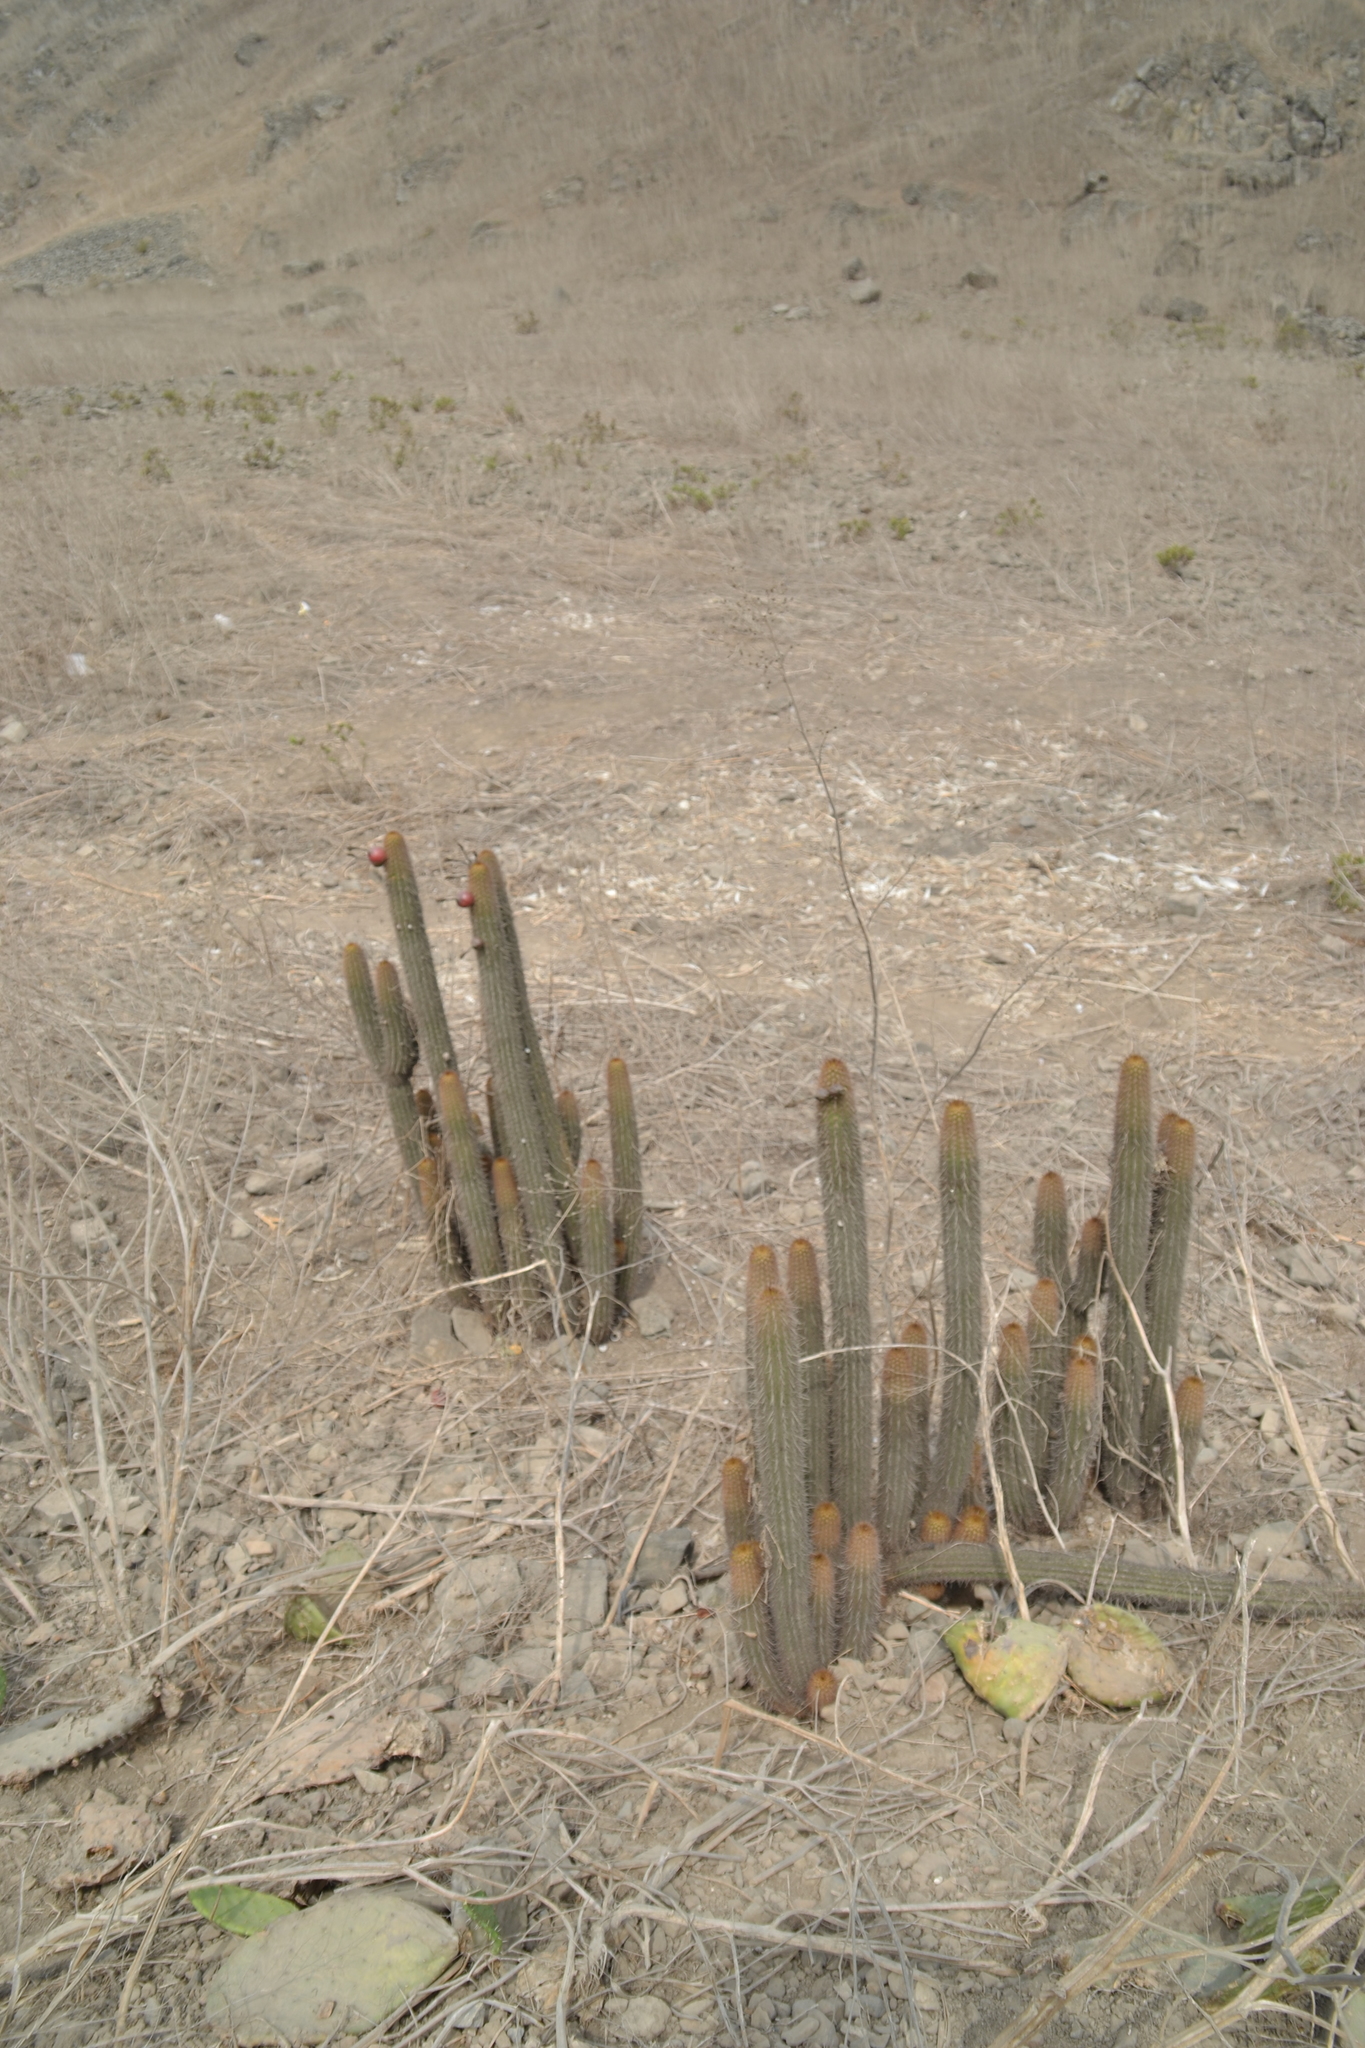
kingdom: Plantae
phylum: Tracheophyta
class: Magnoliopsida
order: Caryophyllales
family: Cactaceae
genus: Haageocereus
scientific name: Haageocereus acranthus
